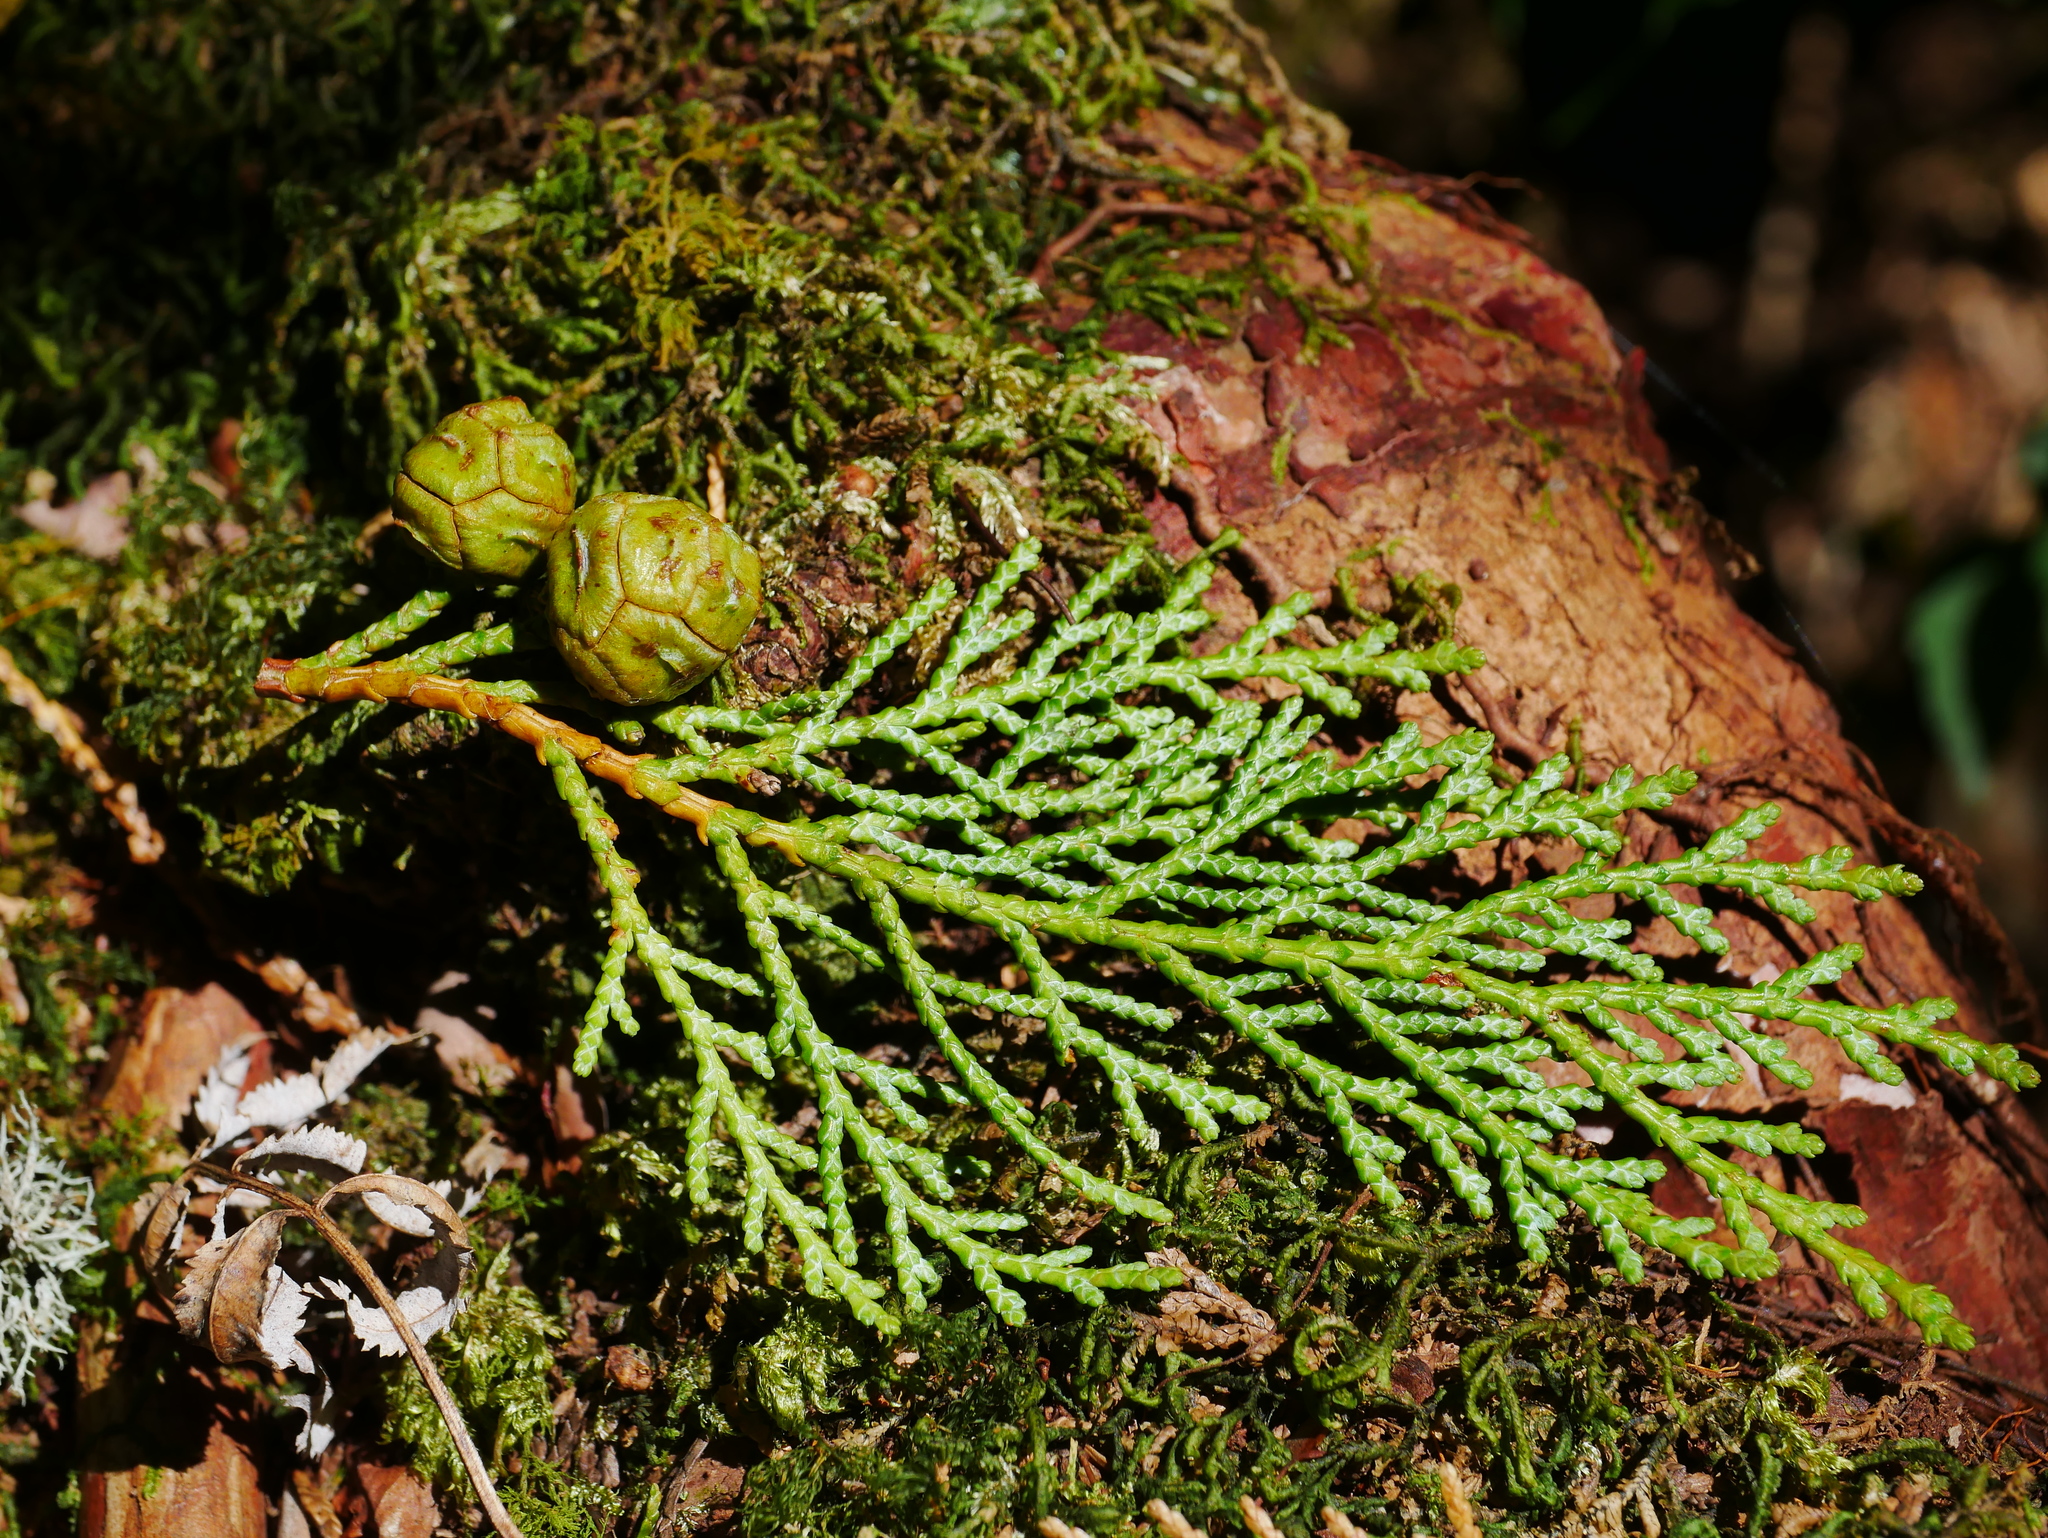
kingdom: Plantae
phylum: Tracheophyta
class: Pinopsida
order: Pinales
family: Cupressaceae
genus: Chamaecyparis
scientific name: Chamaecyparis obtusa
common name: Hinoki false cypress
